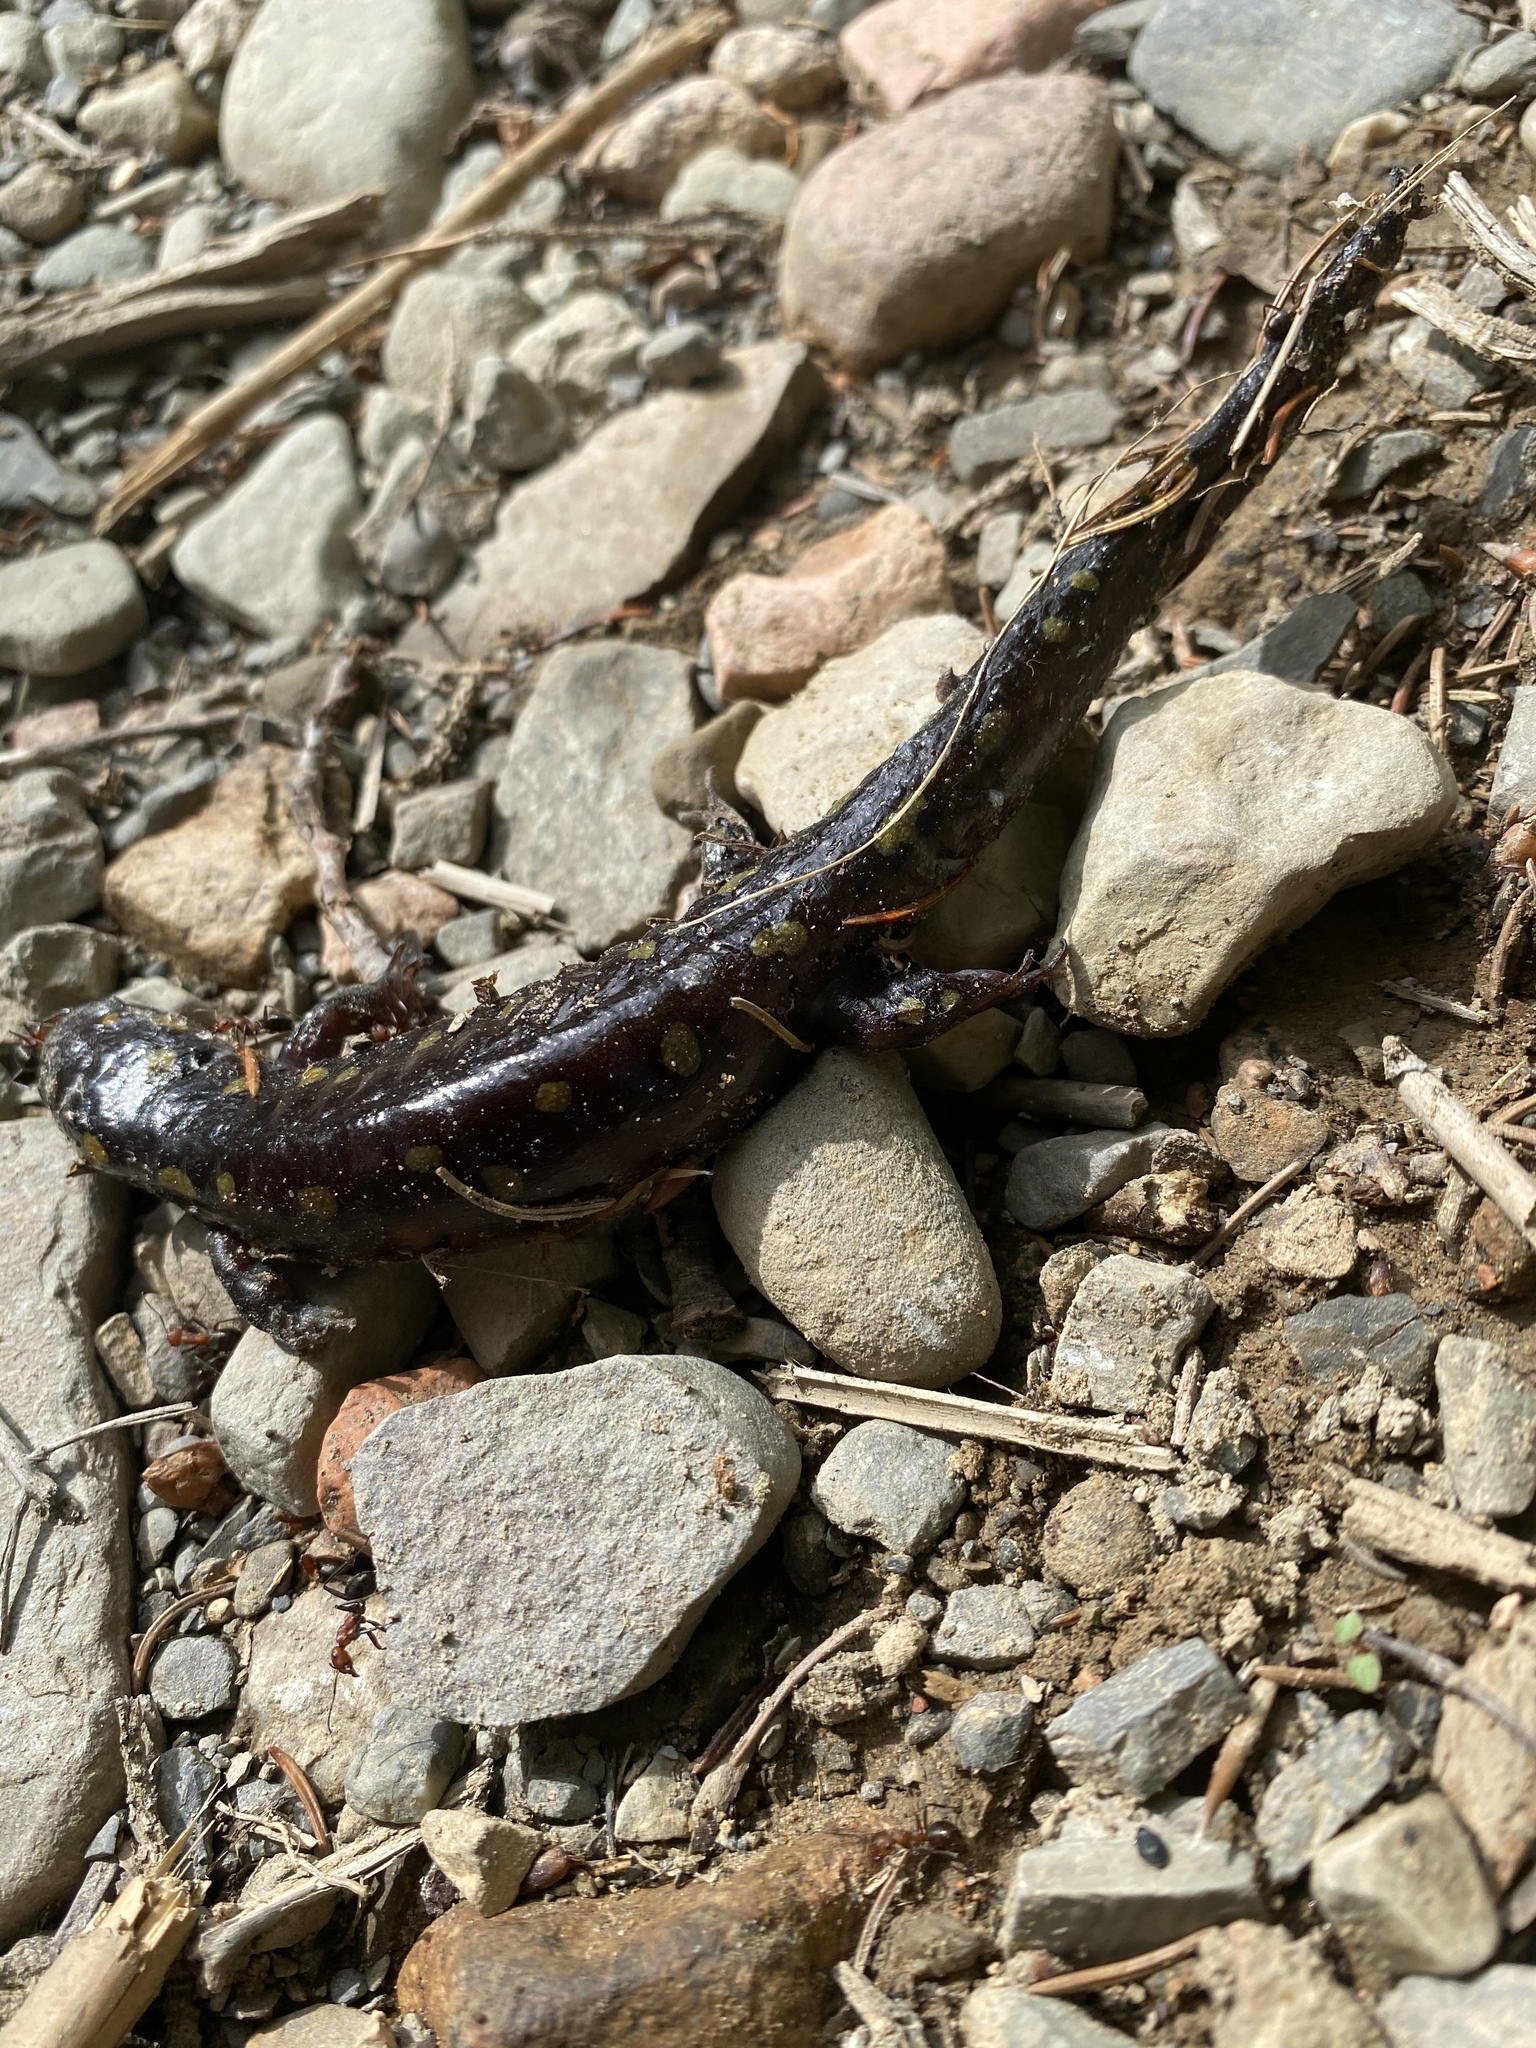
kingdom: Animalia
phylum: Chordata
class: Amphibia
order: Caudata
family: Ambystomatidae
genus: Ambystoma
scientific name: Ambystoma maculatum
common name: Spotted salamander
